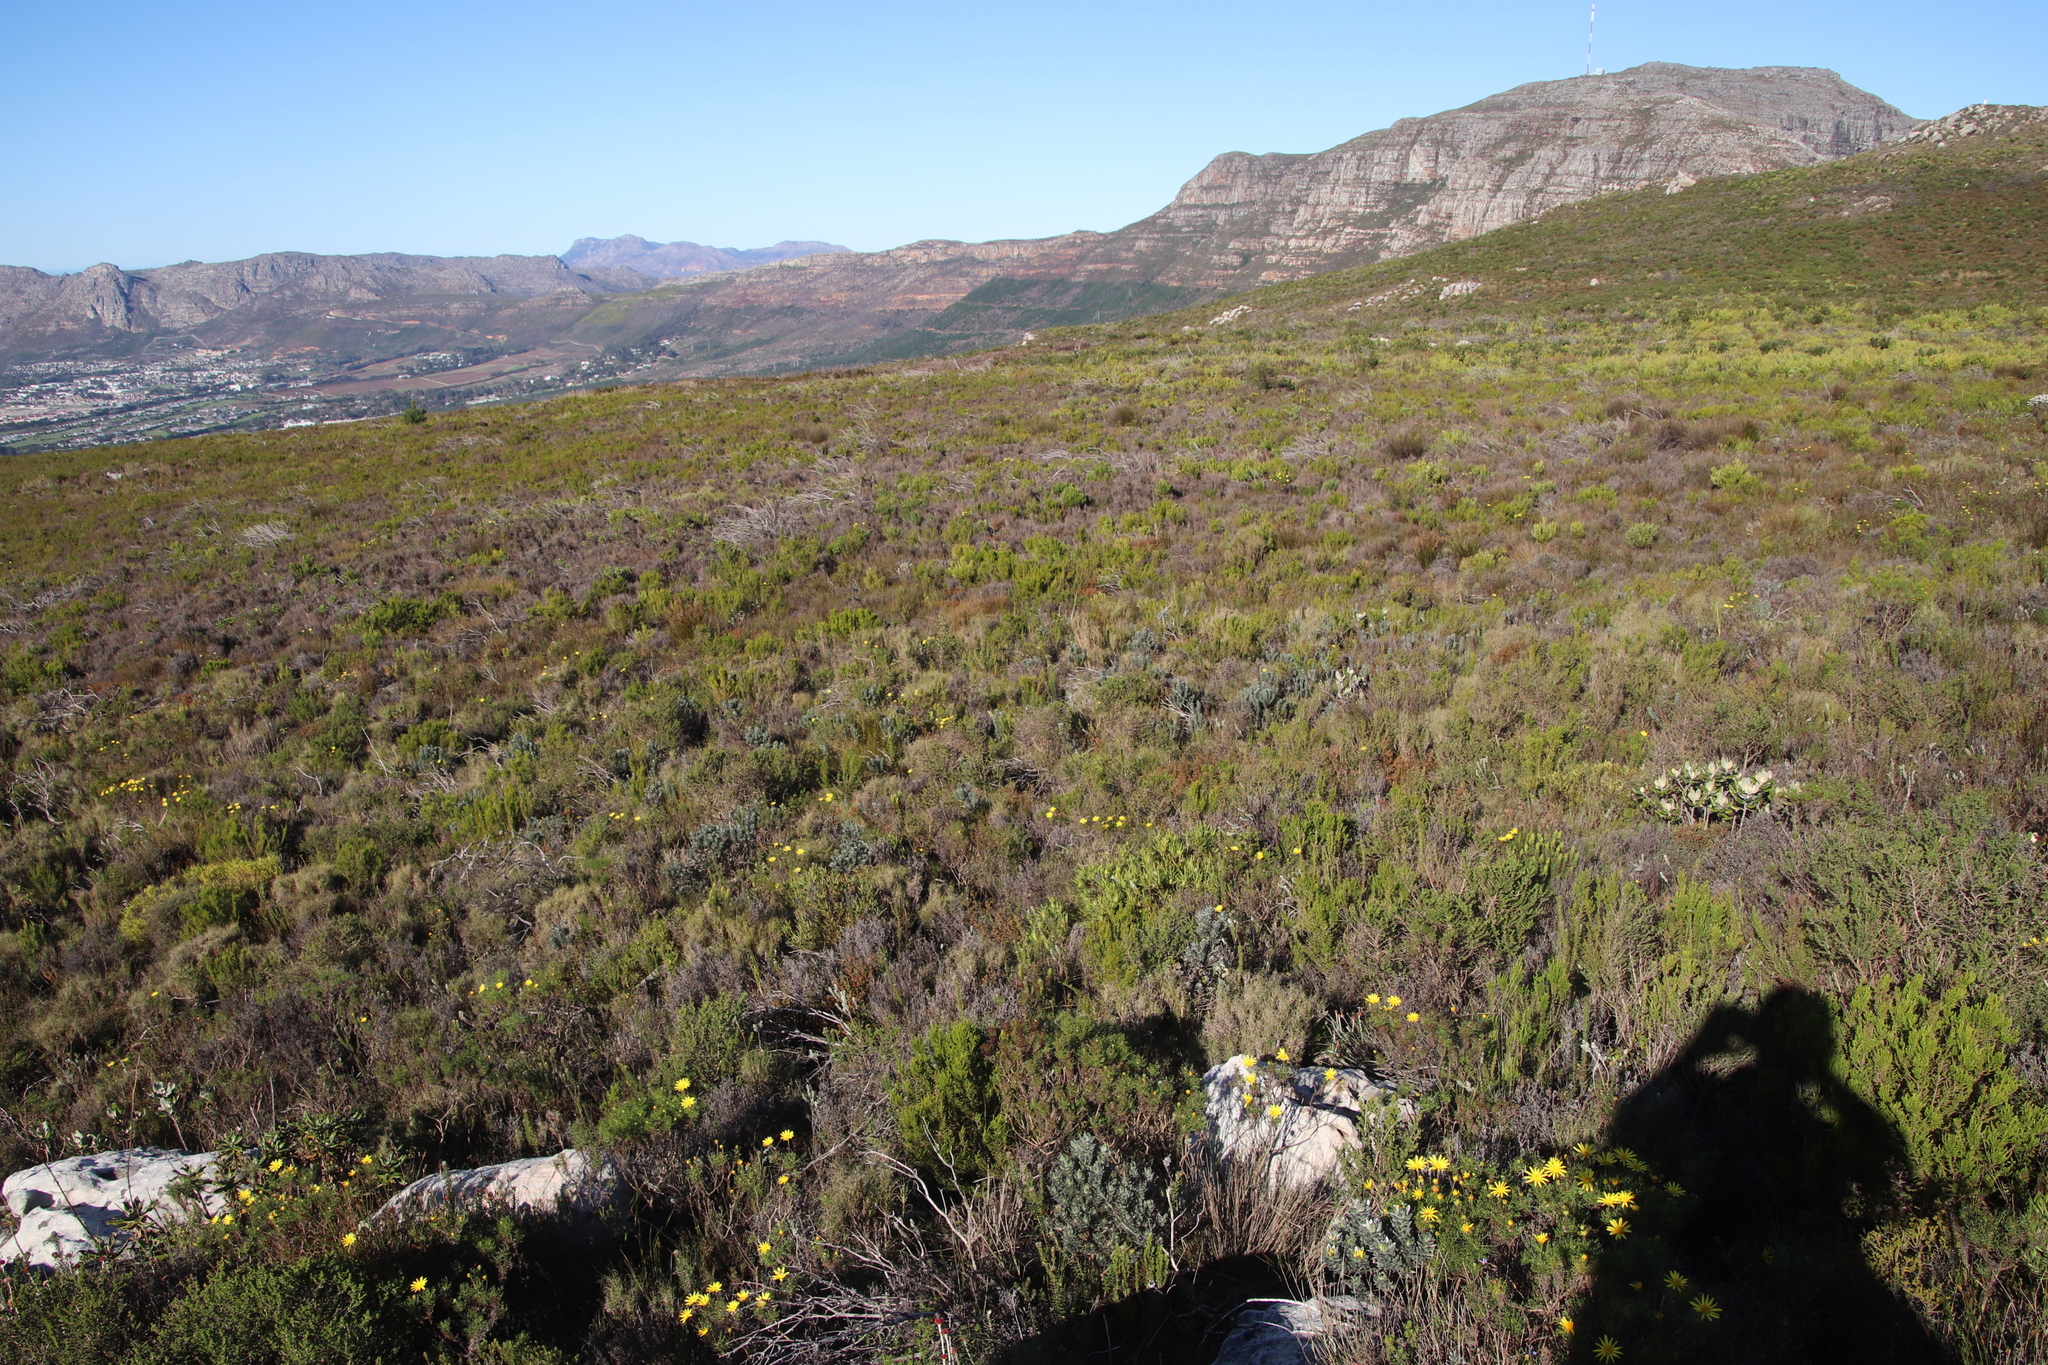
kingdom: Plantae
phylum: Tracheophyta
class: Magnoliopsida
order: Fabales
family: Fabaceae
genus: Xiphotheca
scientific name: Xiphotheca fruticosa
